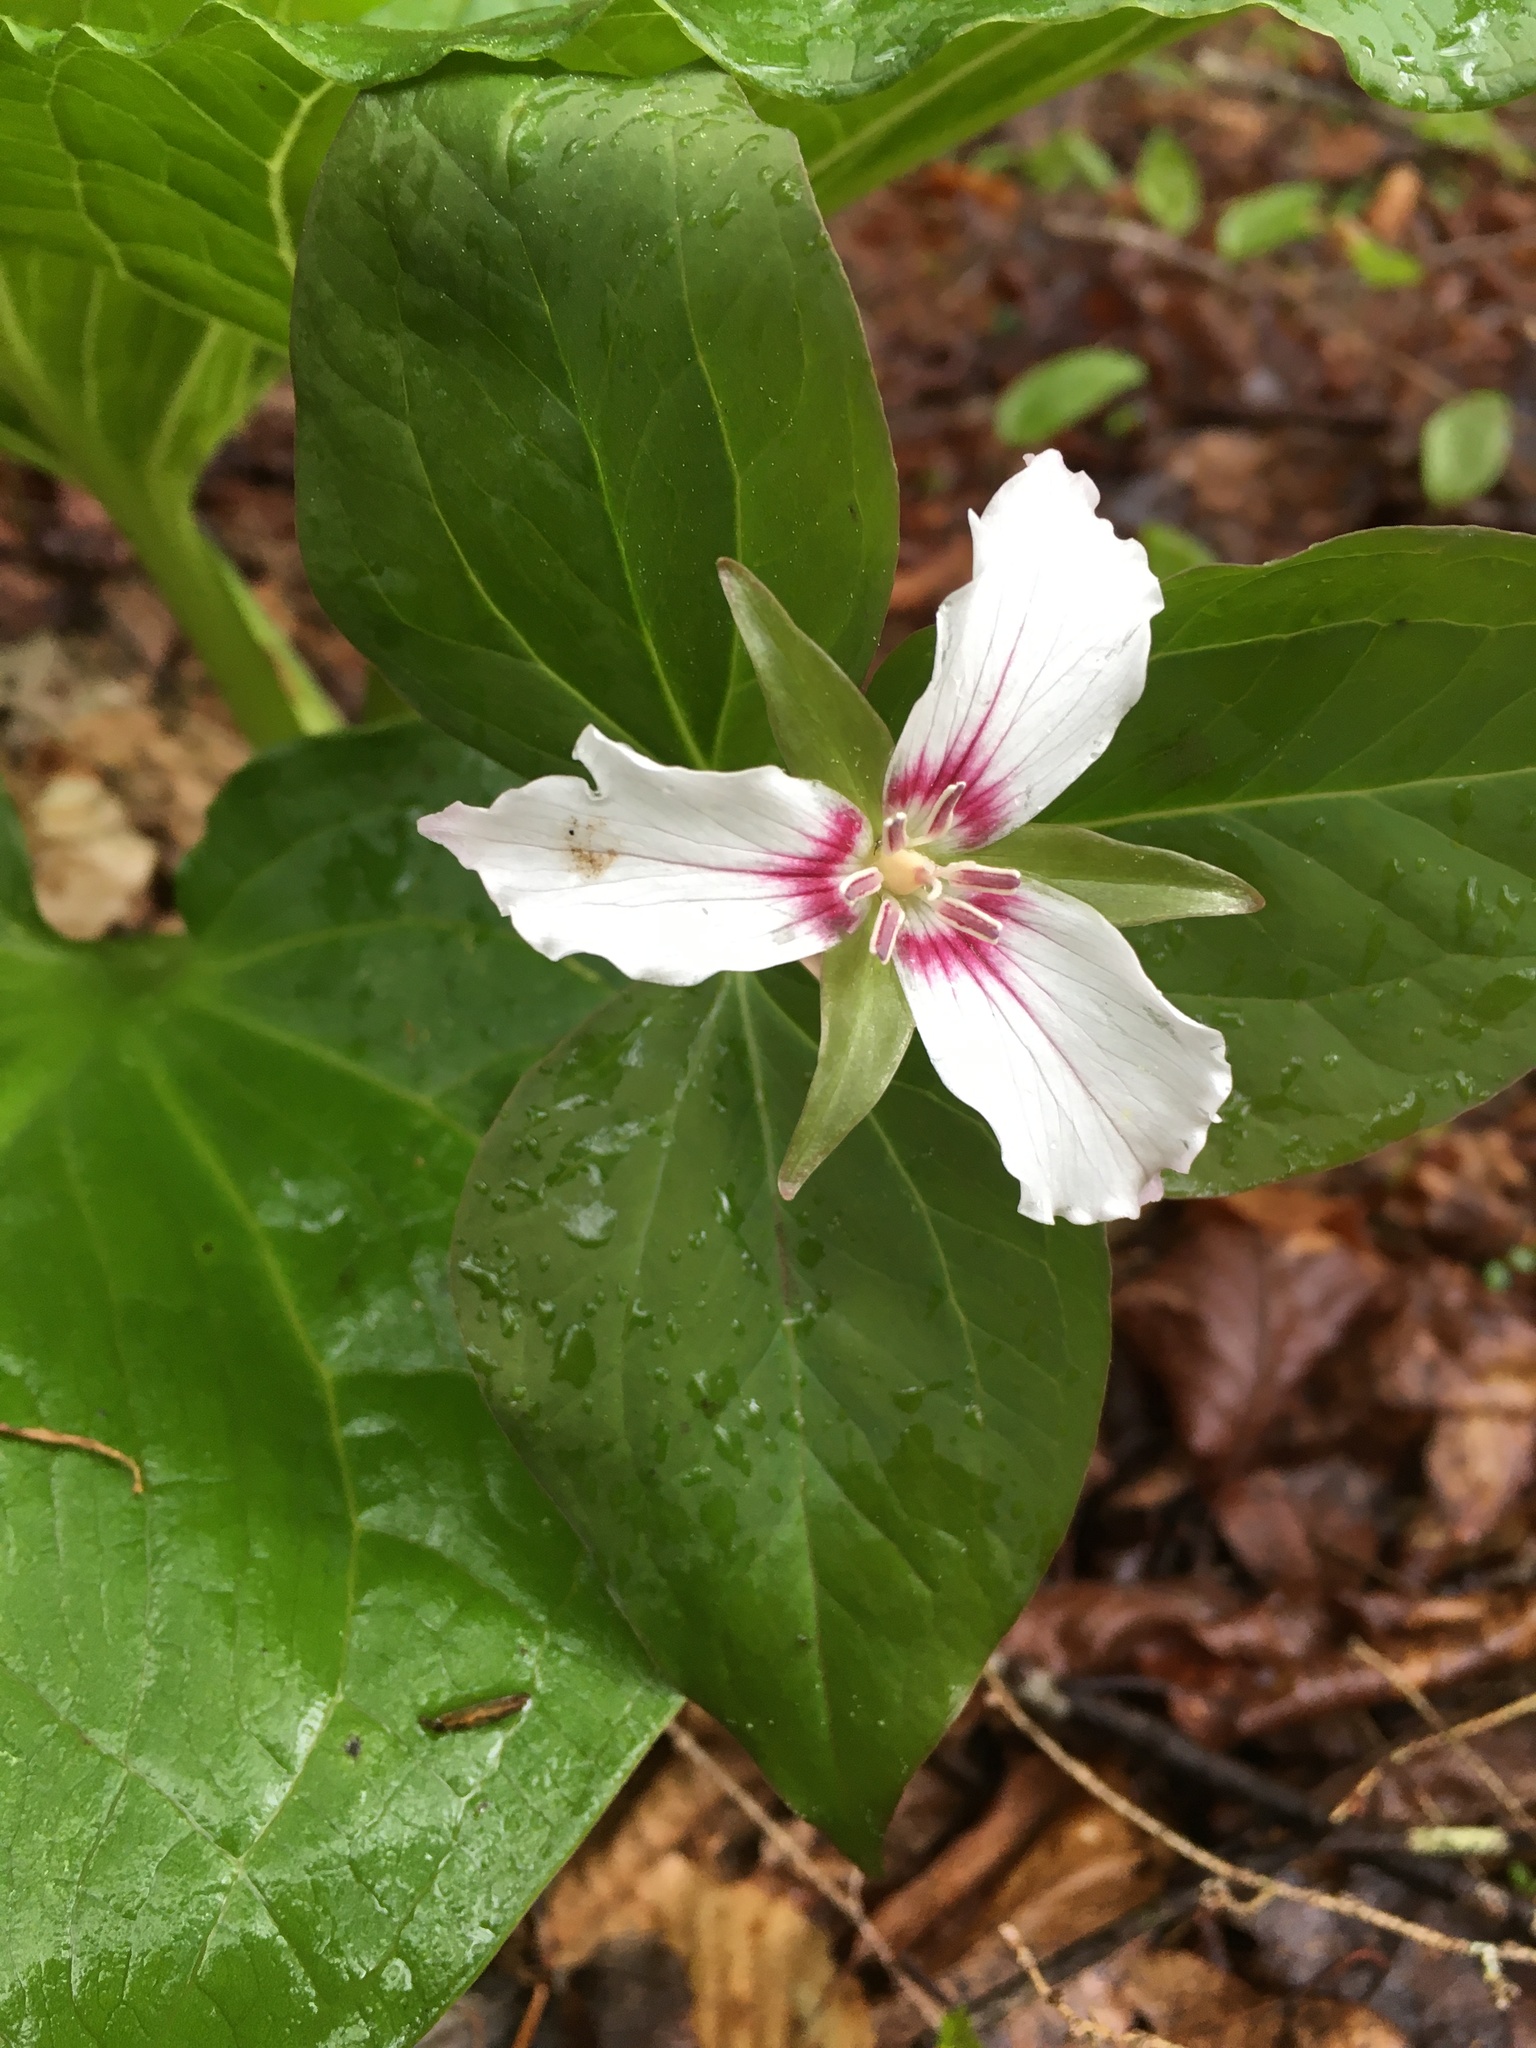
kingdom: Plantae
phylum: Tracheophyta
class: Liliopsida
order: Liliales
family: Melanthiaceae
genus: Trillium
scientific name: Trillium undulatum
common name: Paint trillium
